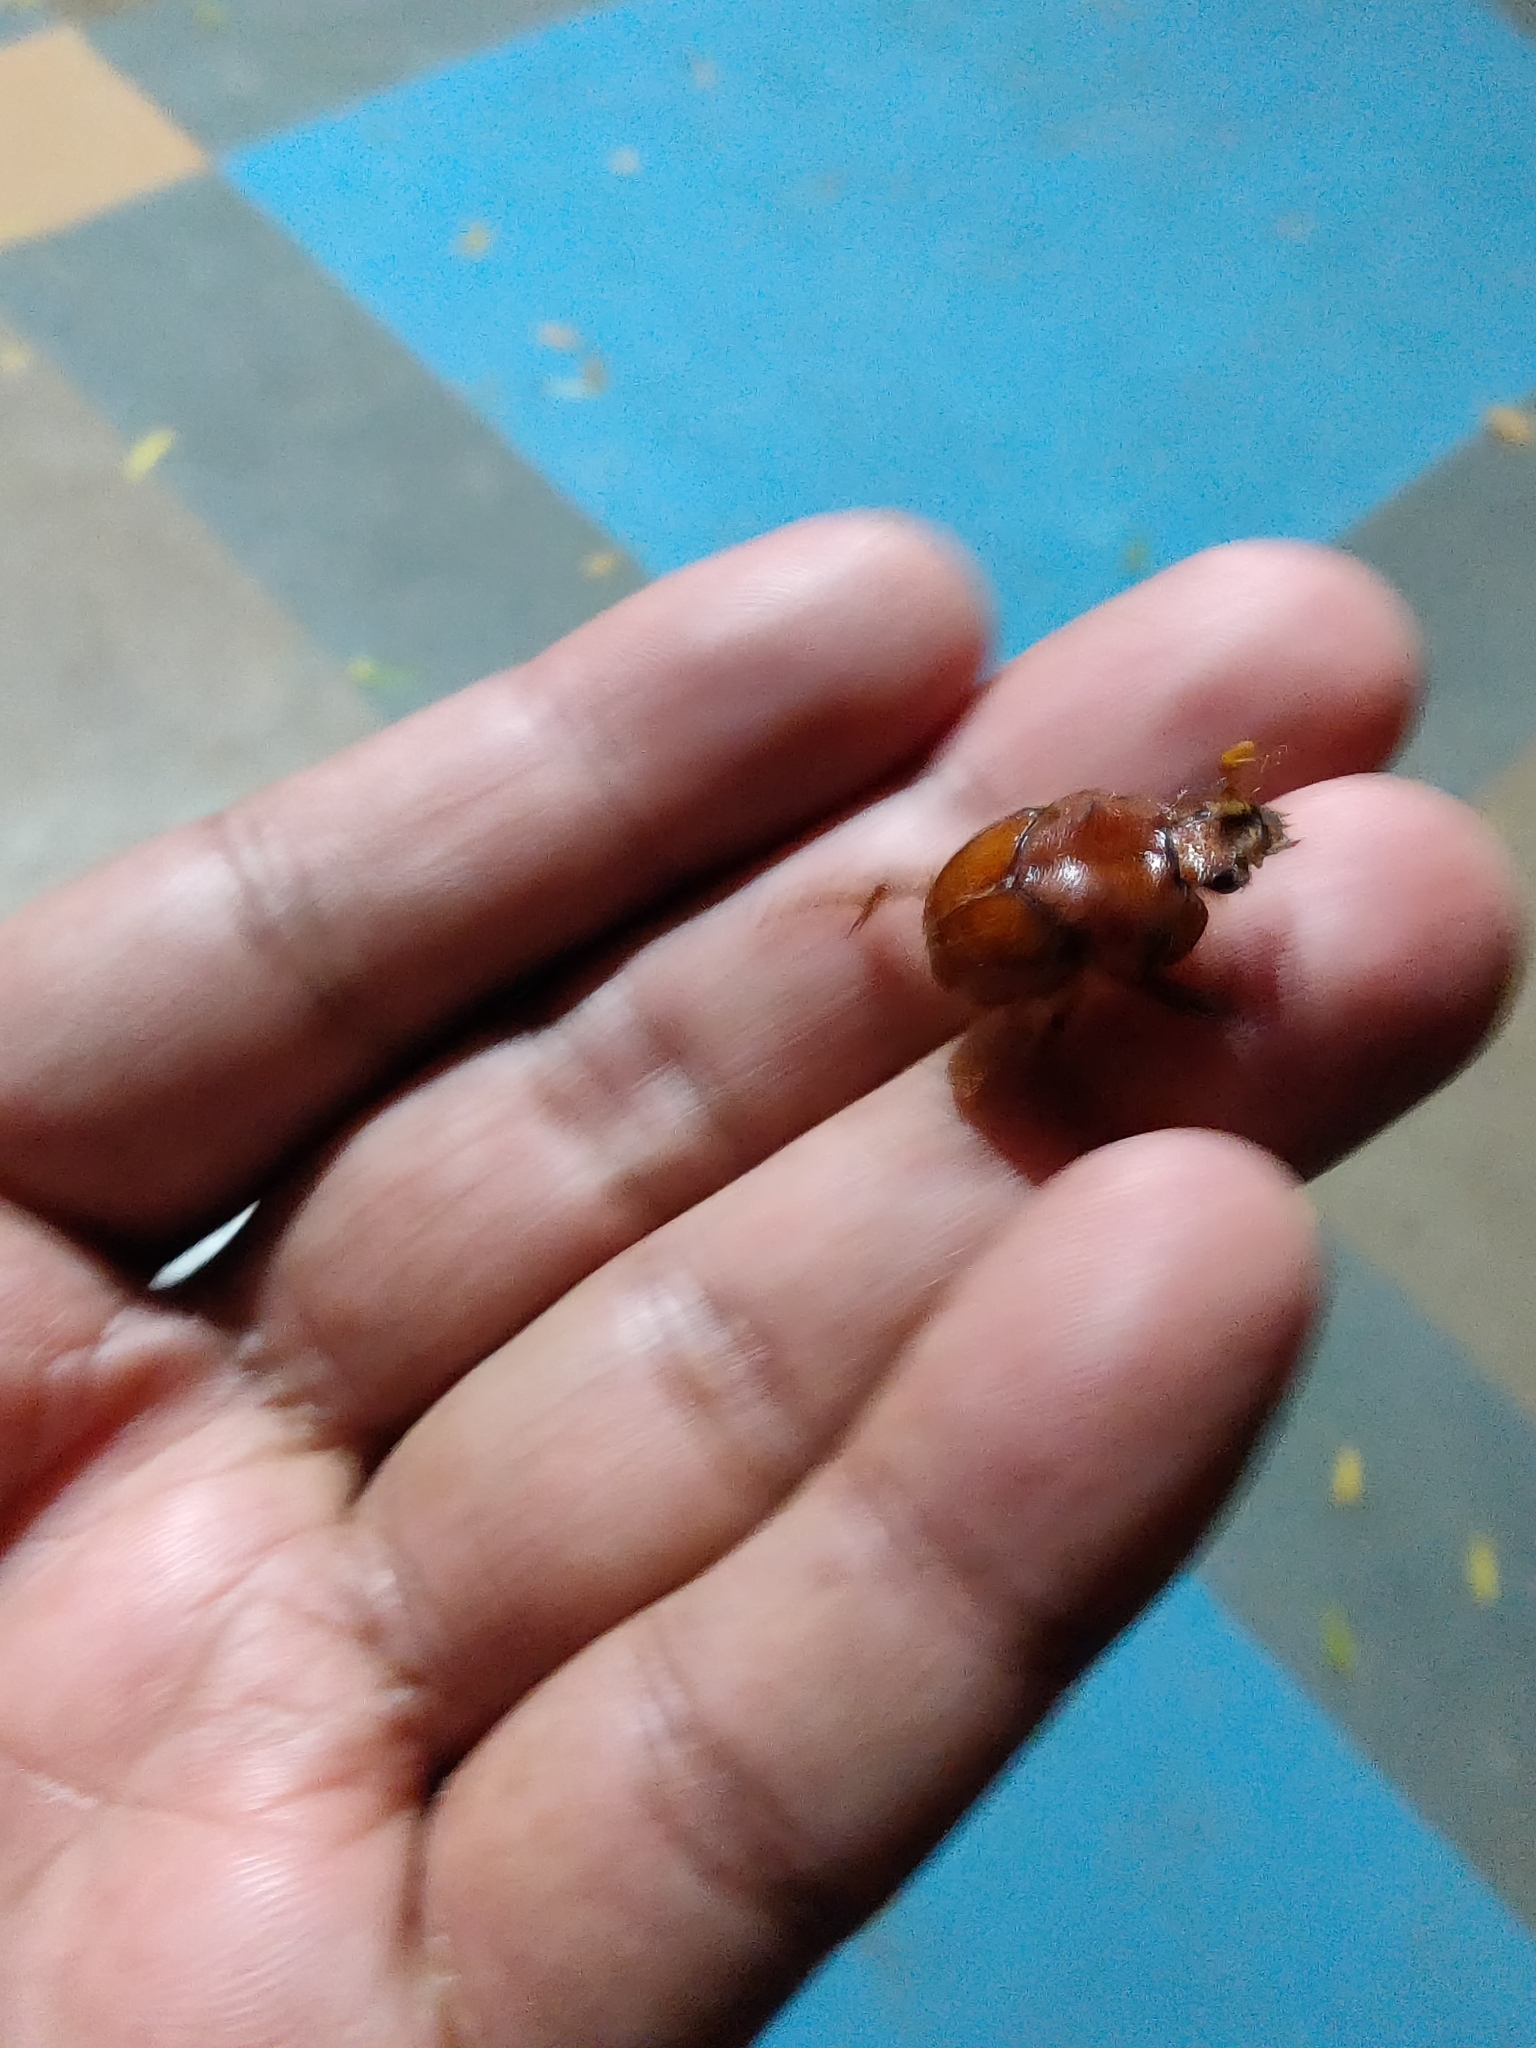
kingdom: Animalia
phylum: Arthropoda
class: Insecta
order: Coleoptera
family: Geotrupidae
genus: Pseudoathyreus
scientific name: Pseudoathyreus orientalis
